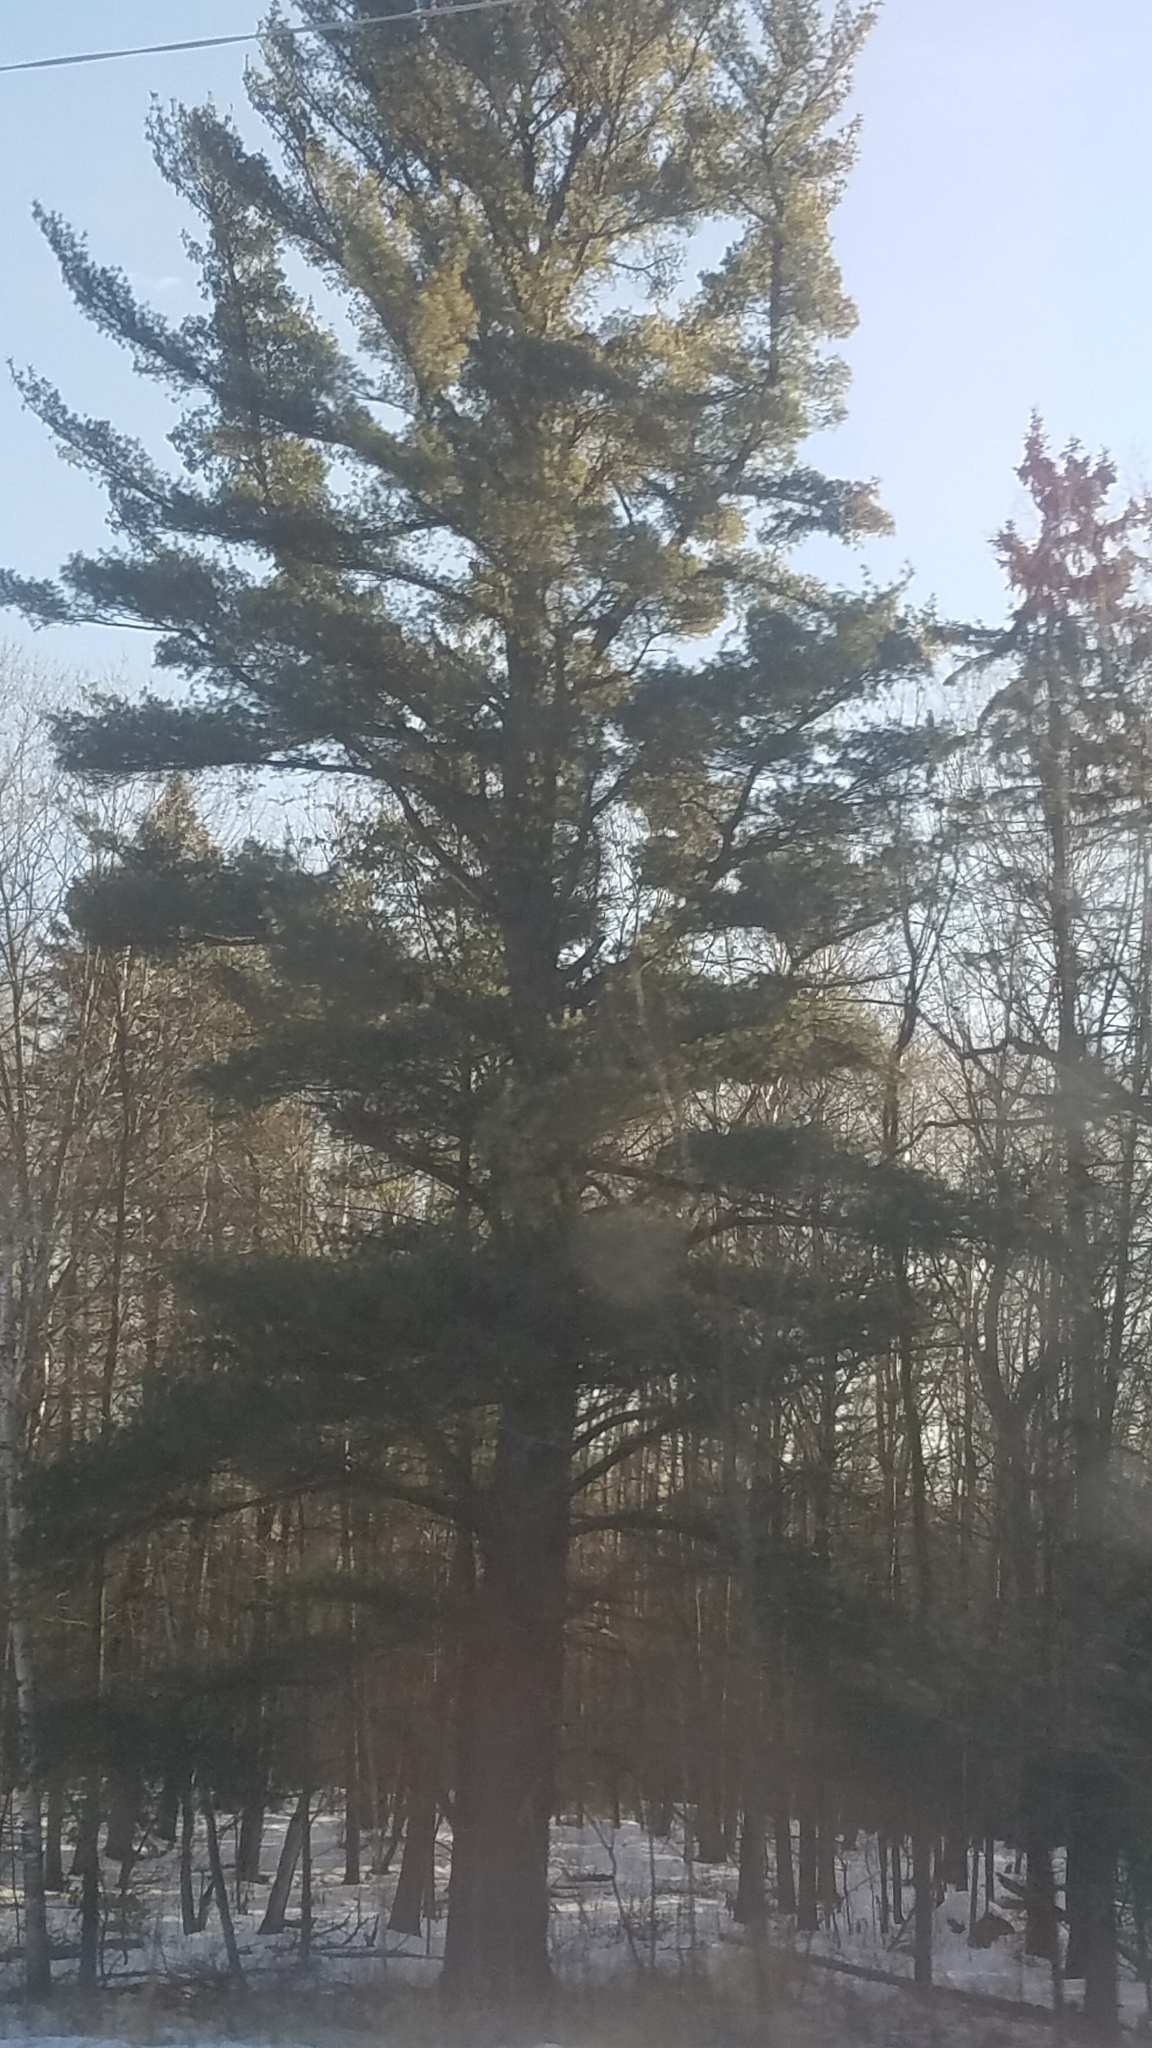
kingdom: Plantae
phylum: Tracheophyta
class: Pinopsida
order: Pinales
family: Pinaceae
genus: Pinus
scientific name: Pinus strobus
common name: Weymouth pine
